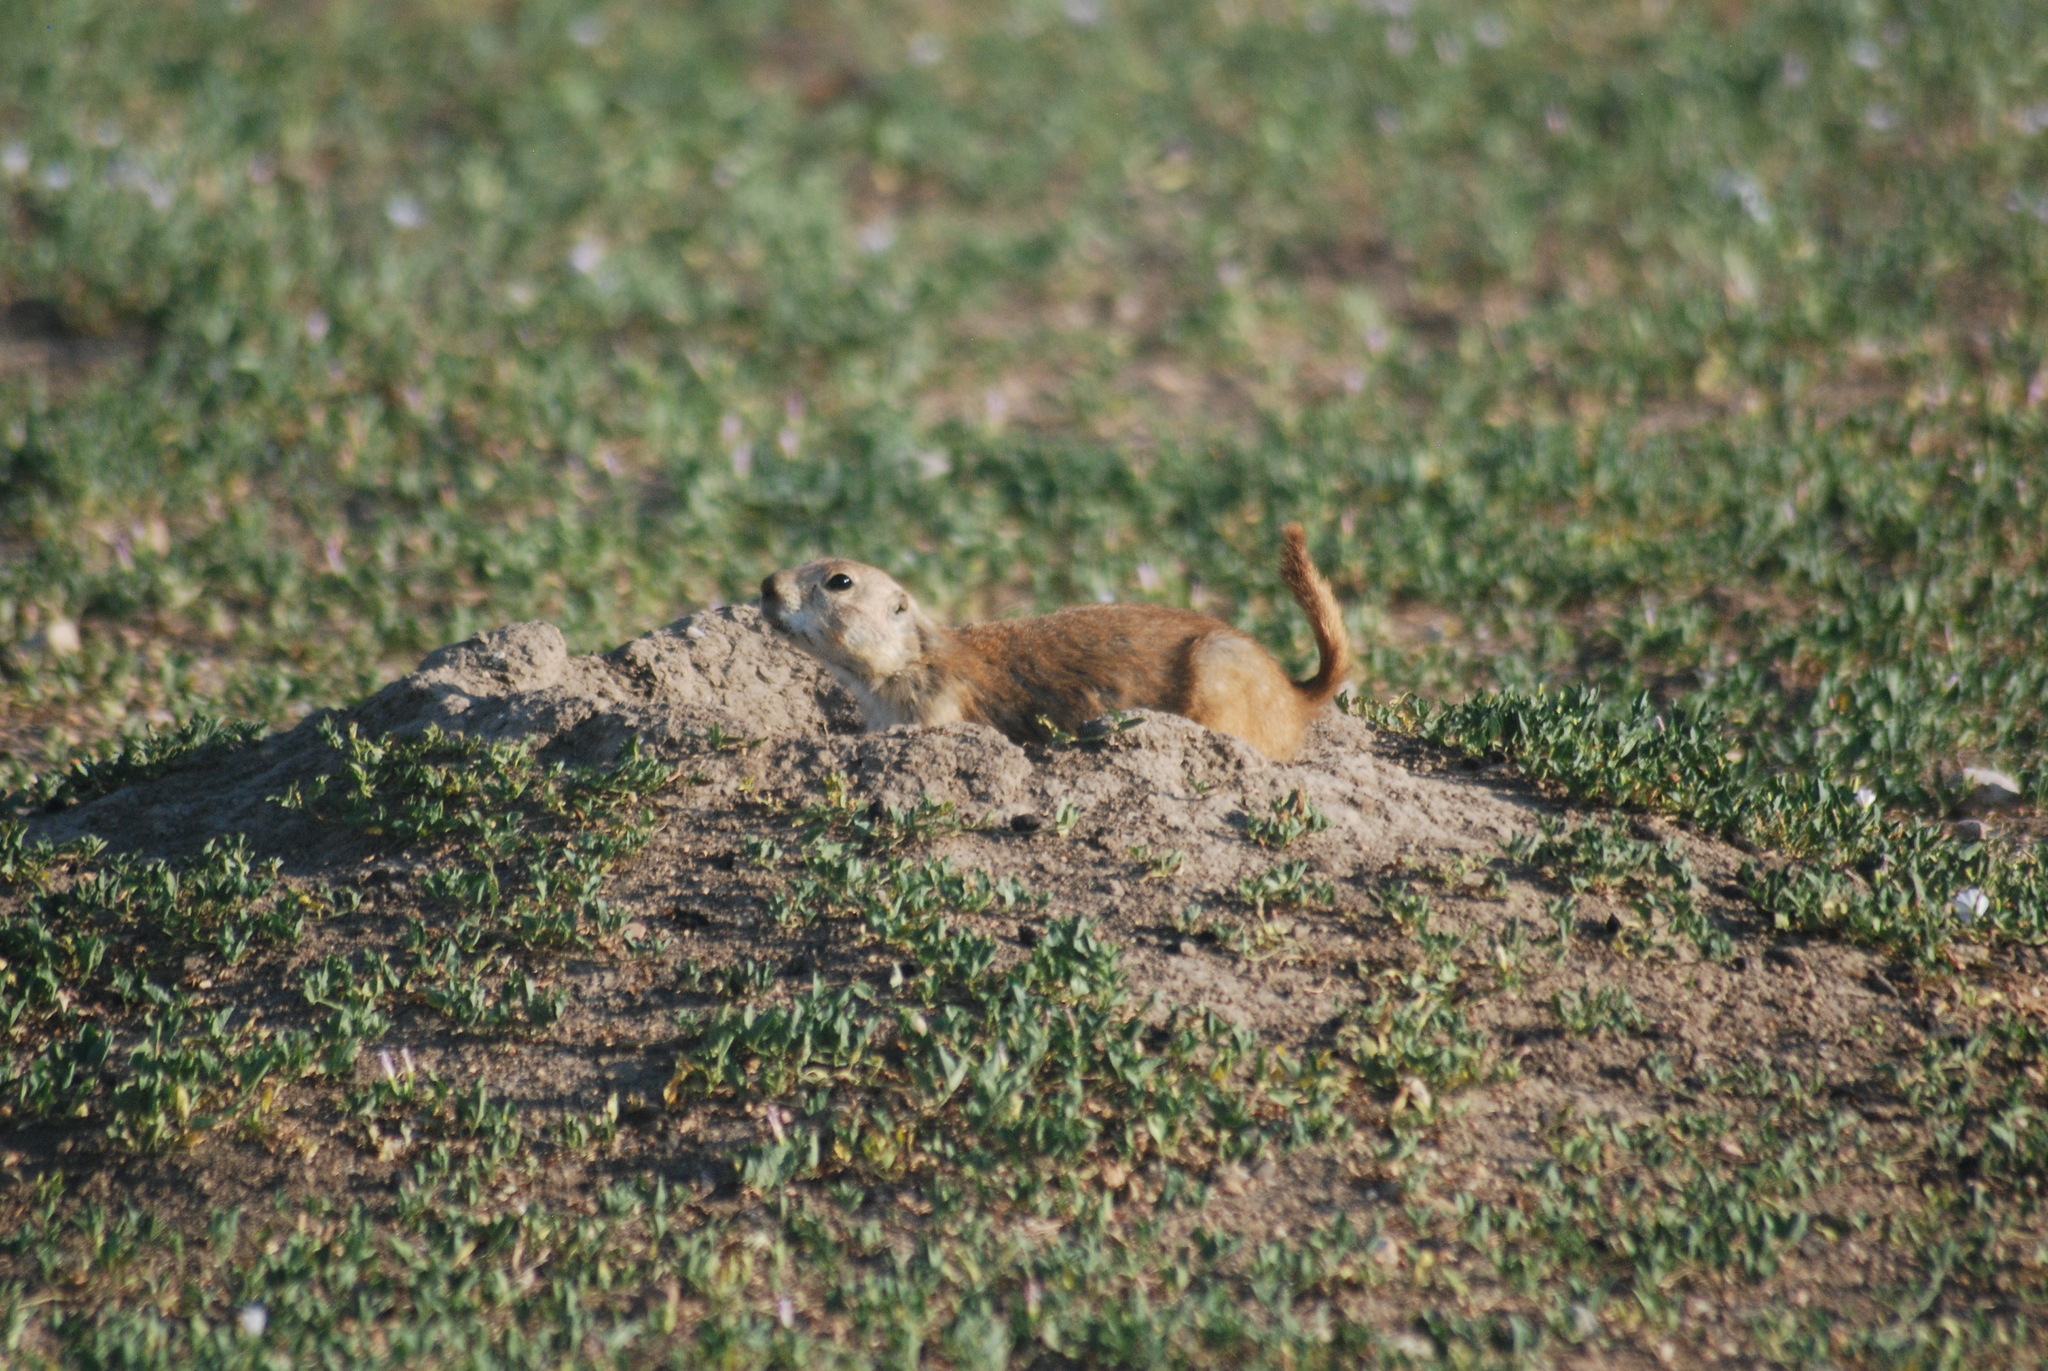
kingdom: Animalia
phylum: Chordata
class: Mammalia
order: Rodentia
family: Sciuridae
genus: Cynomys
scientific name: Cynomys ludovicianus
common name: Black-tailed prairie dog
